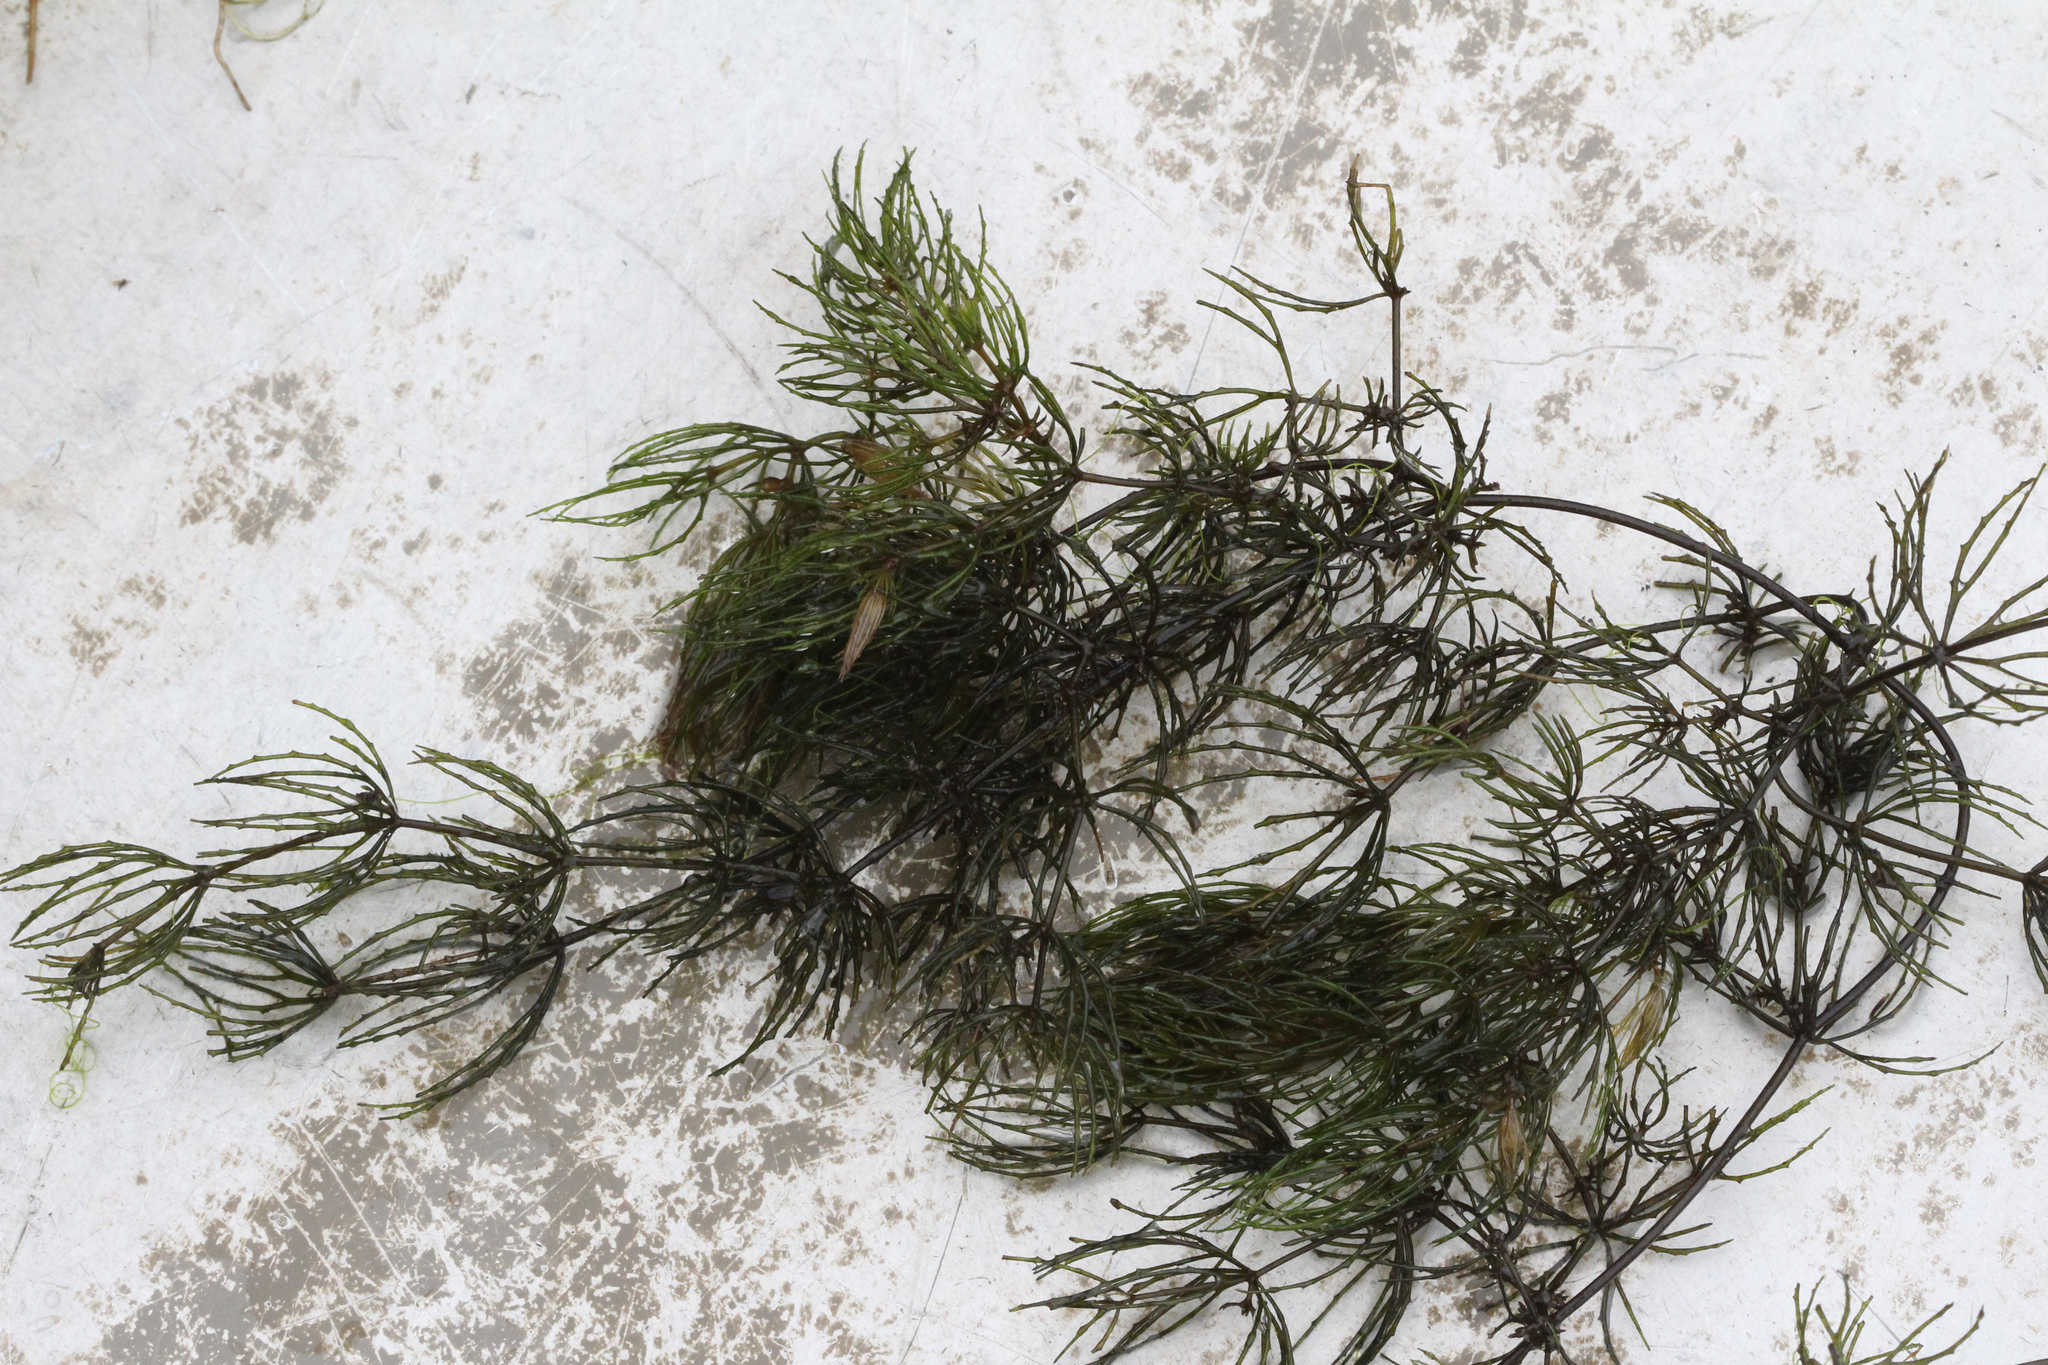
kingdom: Plantae
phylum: Tracheophyta
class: Magnoliopsida
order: Ceratophyllales
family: Ceratophyllaceae
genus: Ceratophyllum
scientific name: Ceratophyllum demersum
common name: Rigid hornwort
